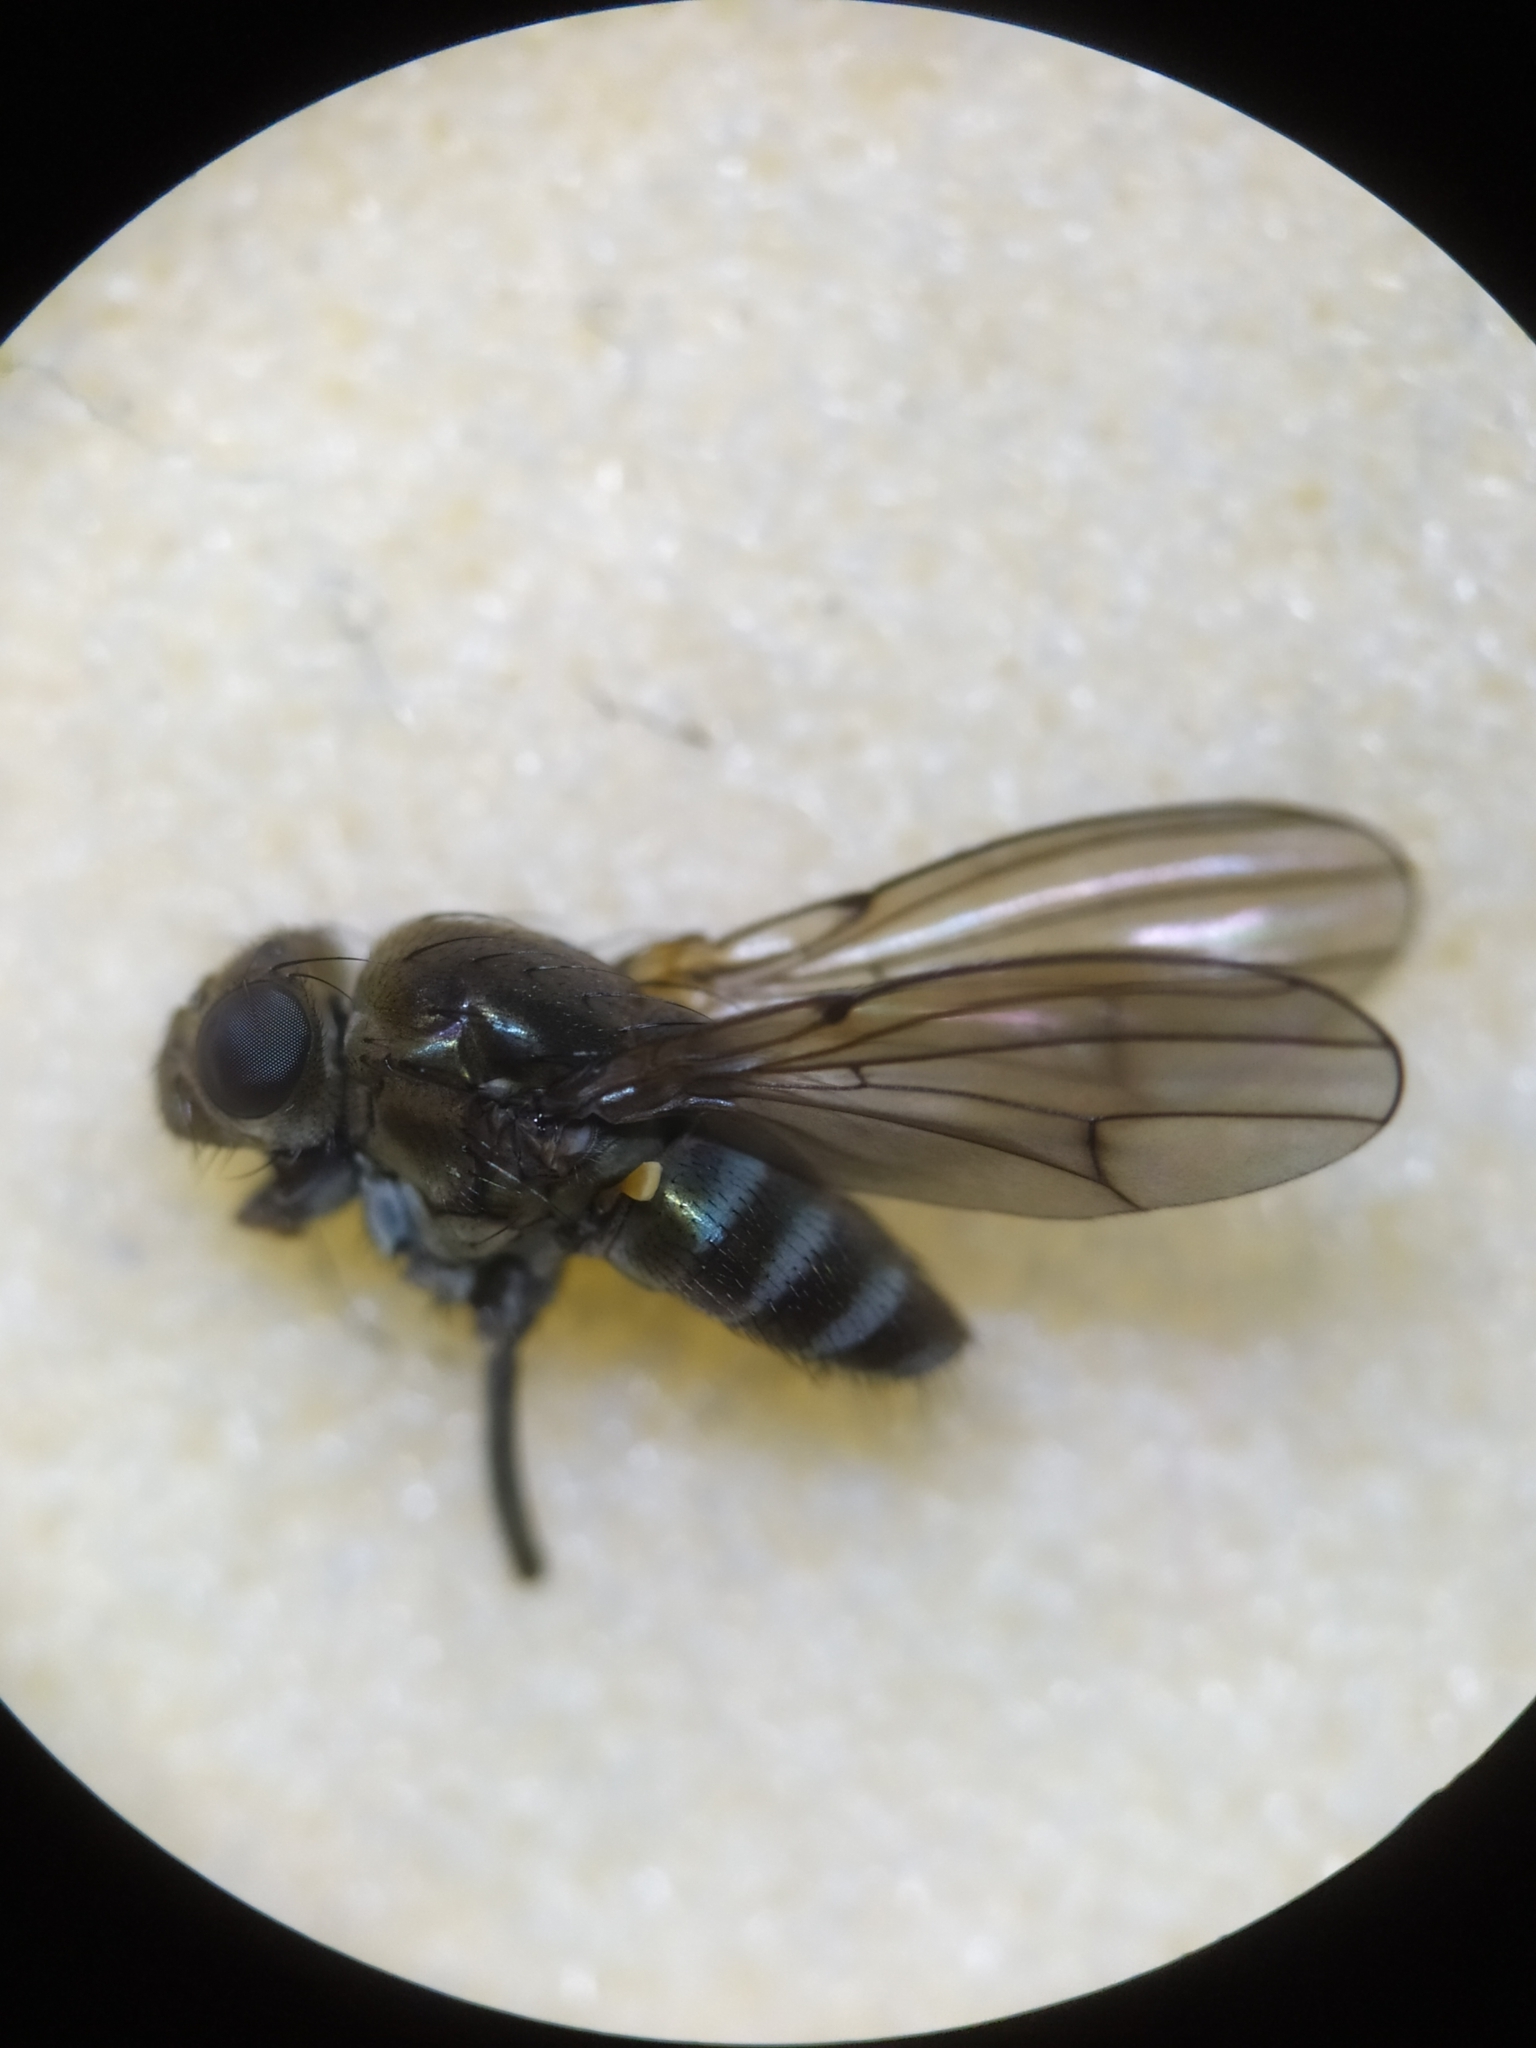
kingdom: Animalia
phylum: Arthropoda
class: Insecta
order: Diptera
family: Ephydridae
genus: Paracoenia
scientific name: Paracoenia fumosa
